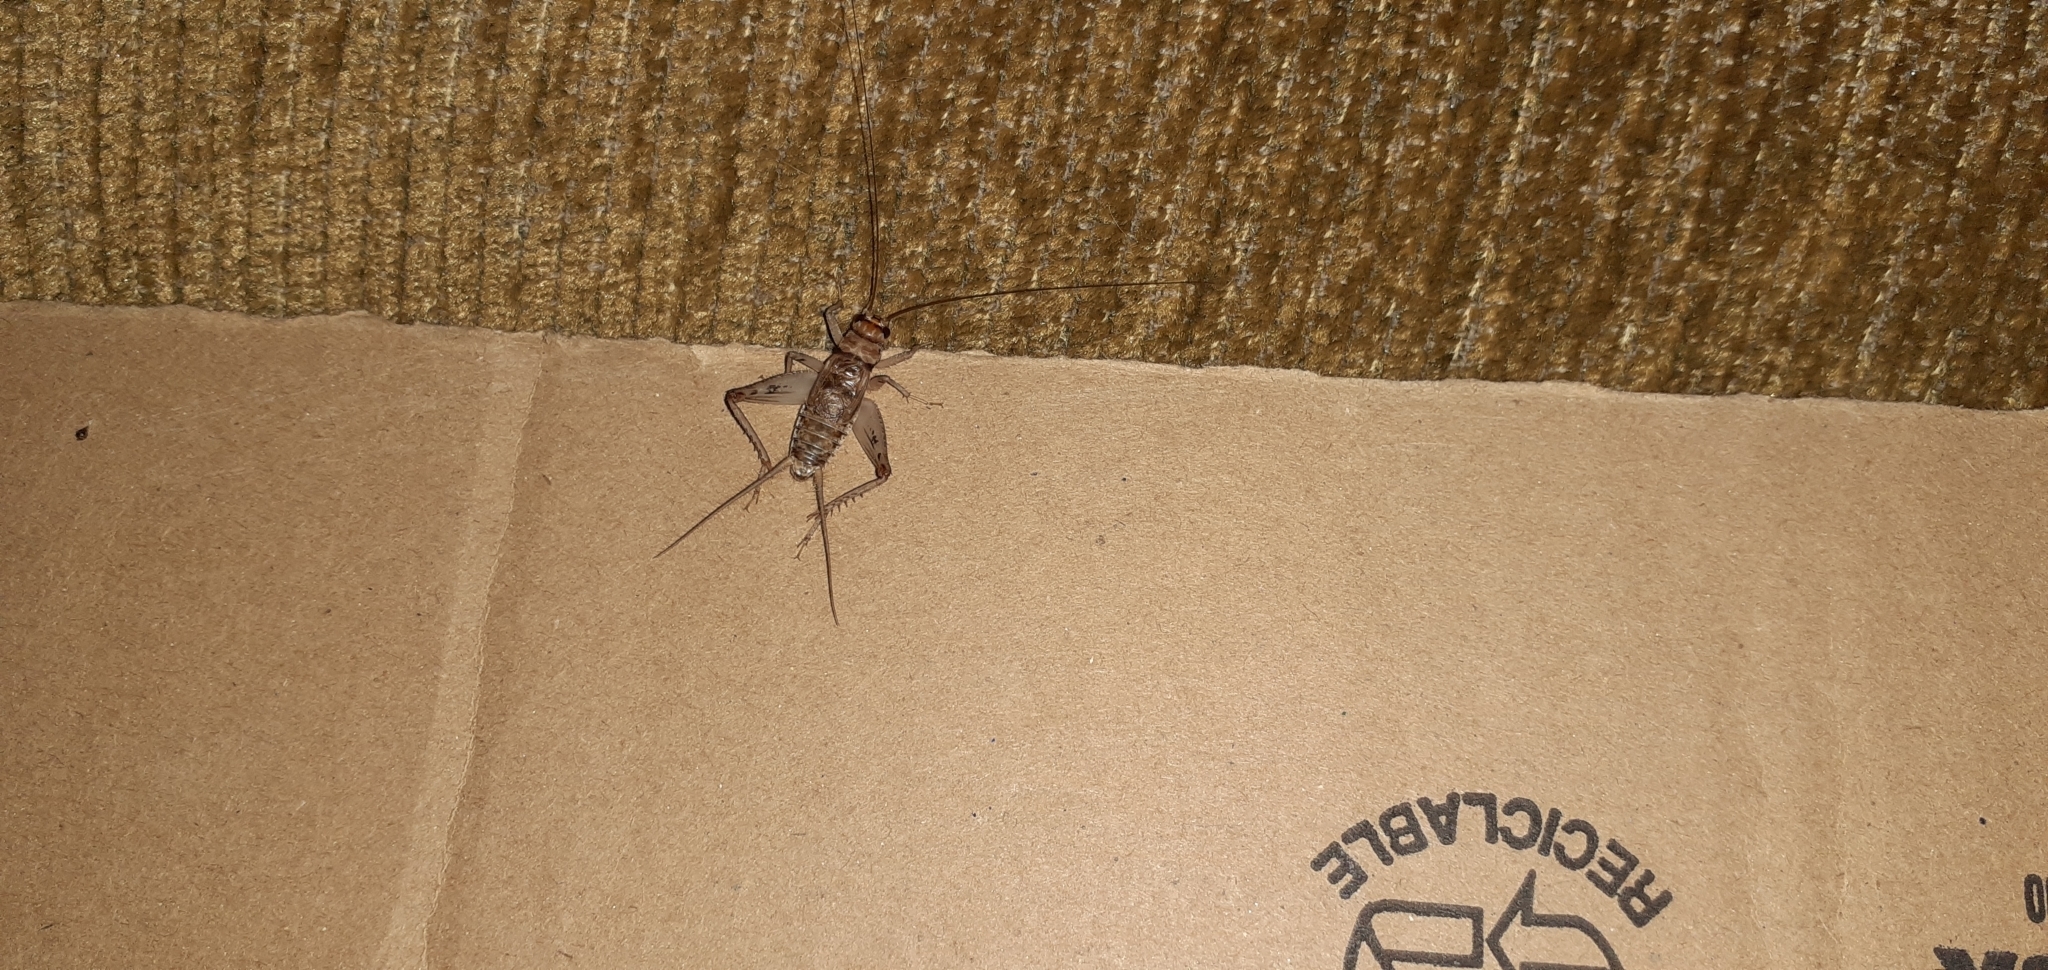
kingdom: Animalia
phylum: Arthropoda
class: Insecta
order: Orthoptera
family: Gryllidae
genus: Gryllodes
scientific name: Gryllodes sigillatus
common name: Tropical house cricket
